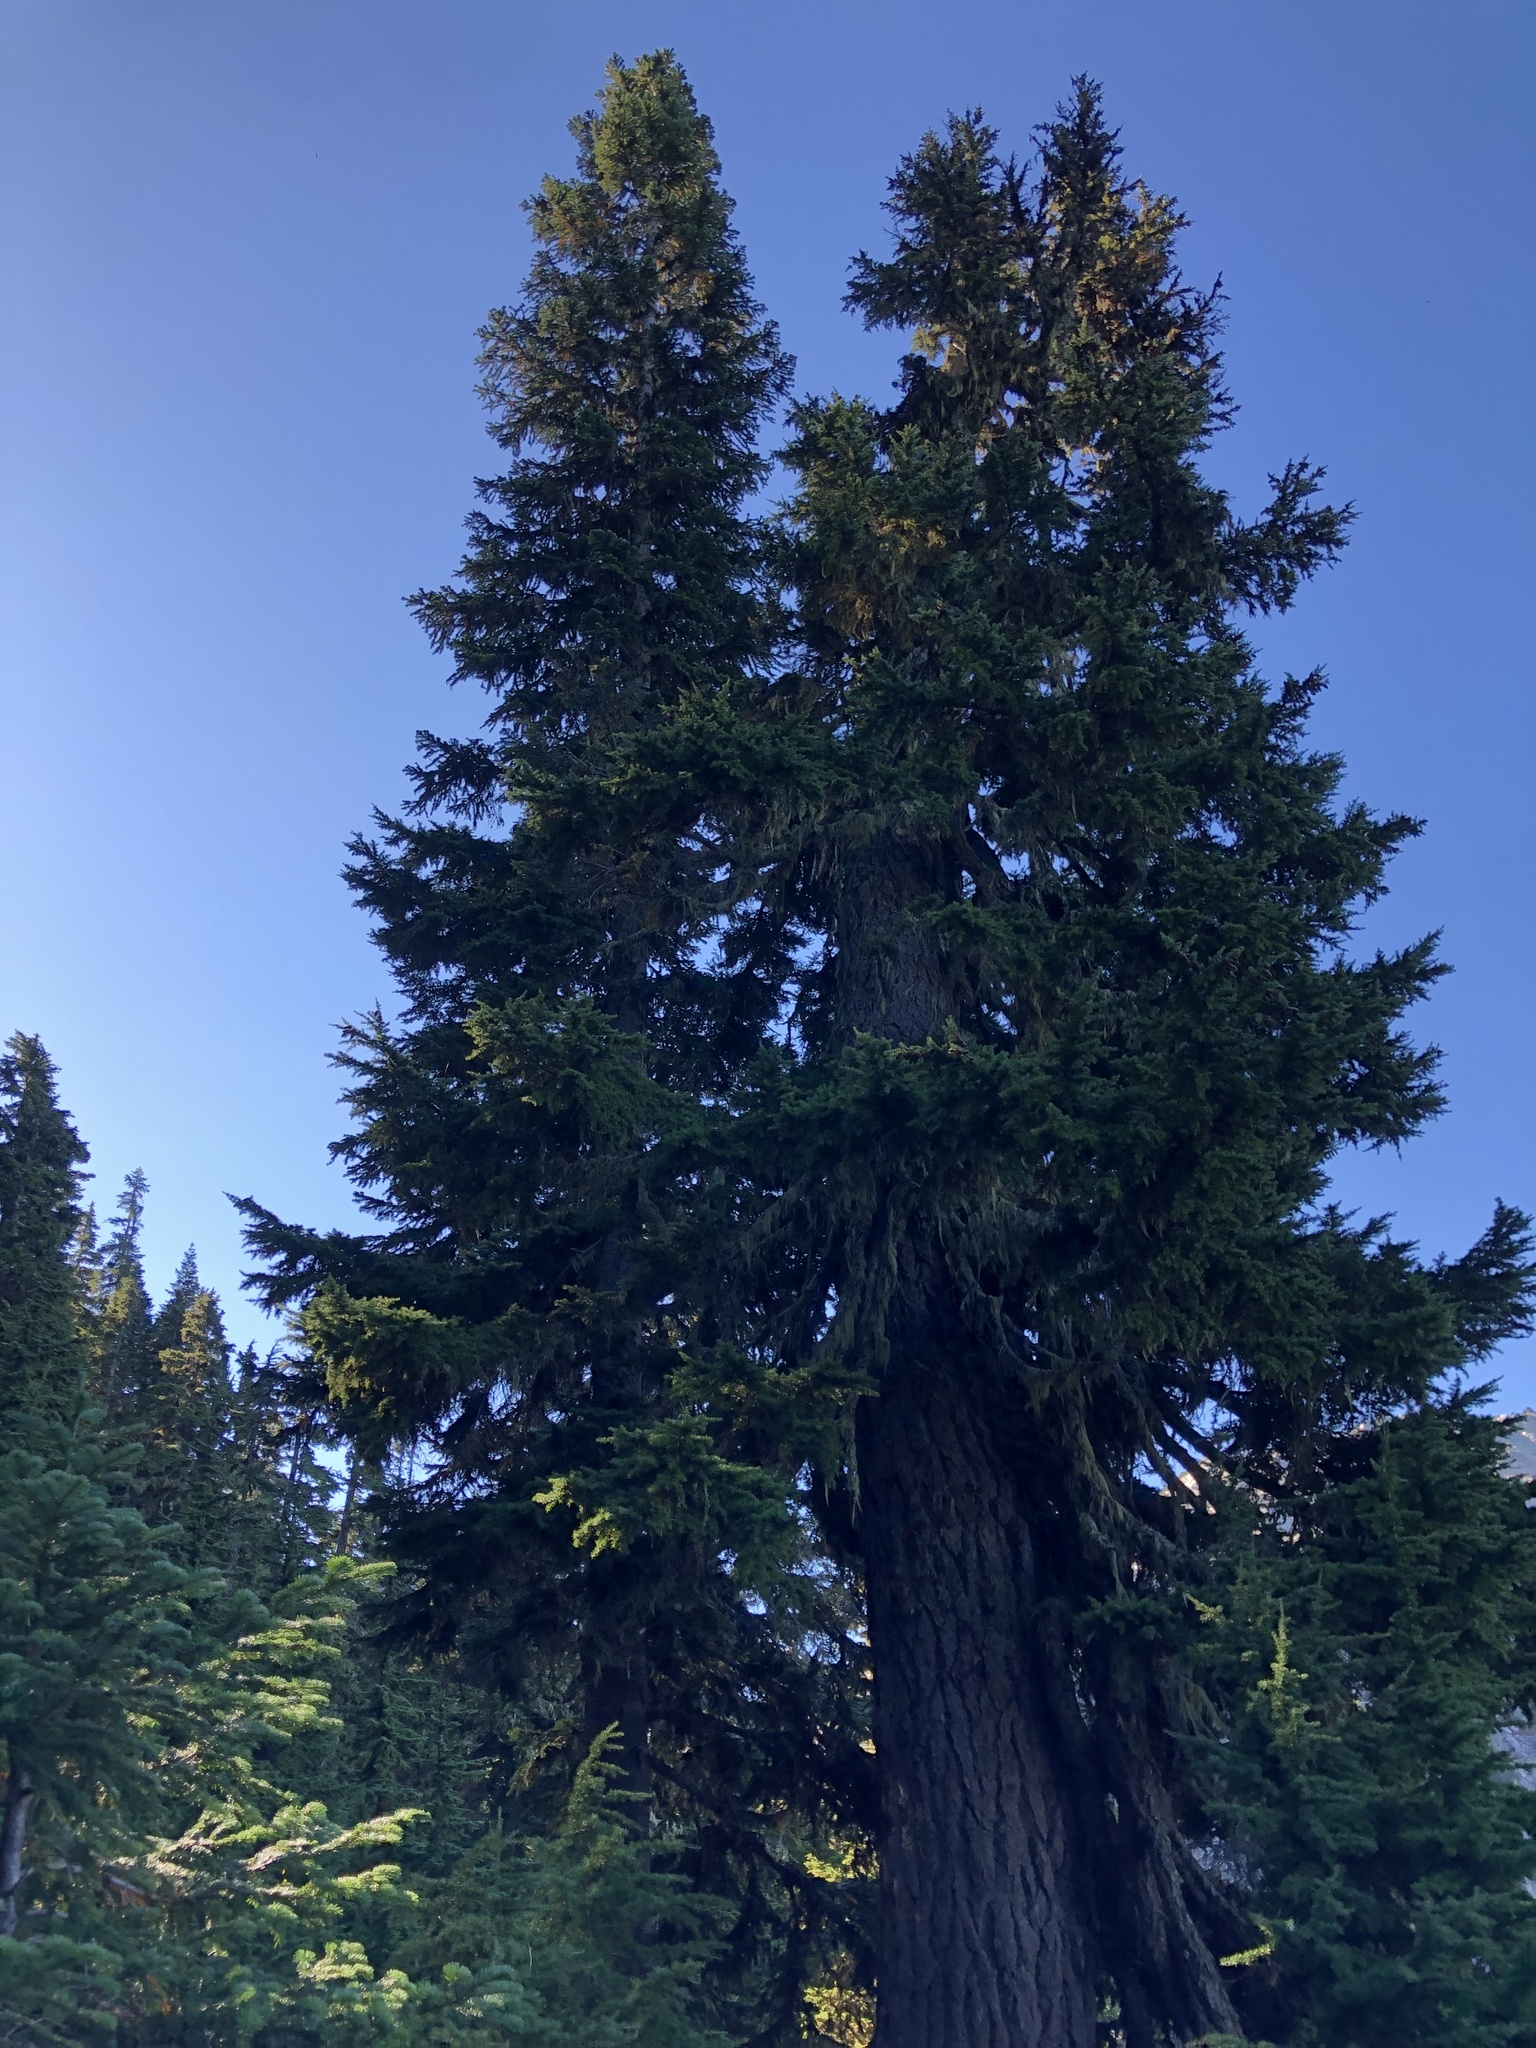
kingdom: Plantae
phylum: Tracheophyta
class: Pinopsida
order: Pinales
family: Pinaceae
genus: Tsuga
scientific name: Tsuga mertensiana
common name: Mountain hemlock
